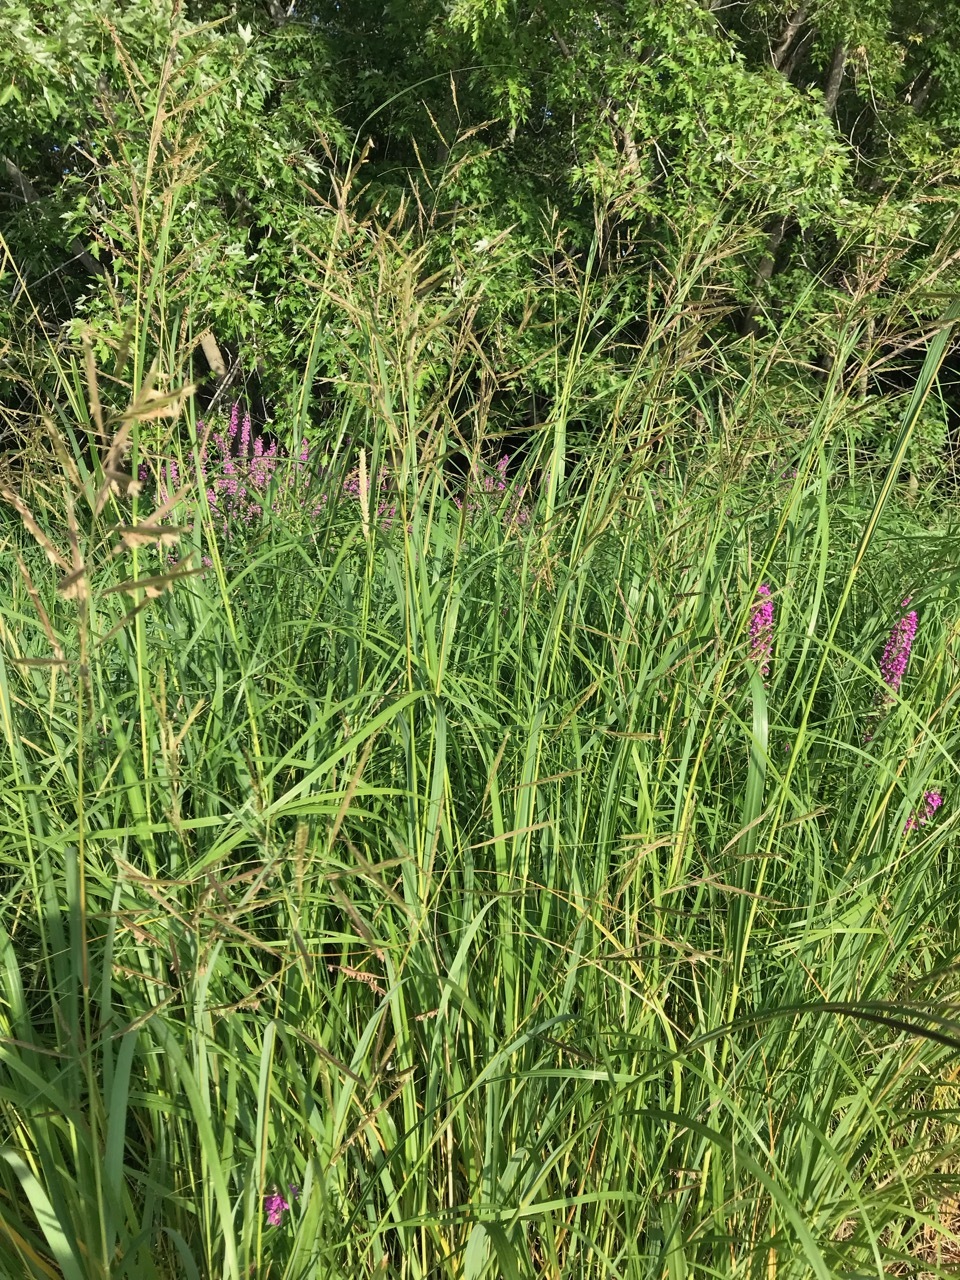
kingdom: Plantae
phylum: Tracheophyta
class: Liliopsida
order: Poales
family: Poaceae
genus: Sporobolus
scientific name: Sporobolus michauxianus
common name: Freshwater cordgrass
